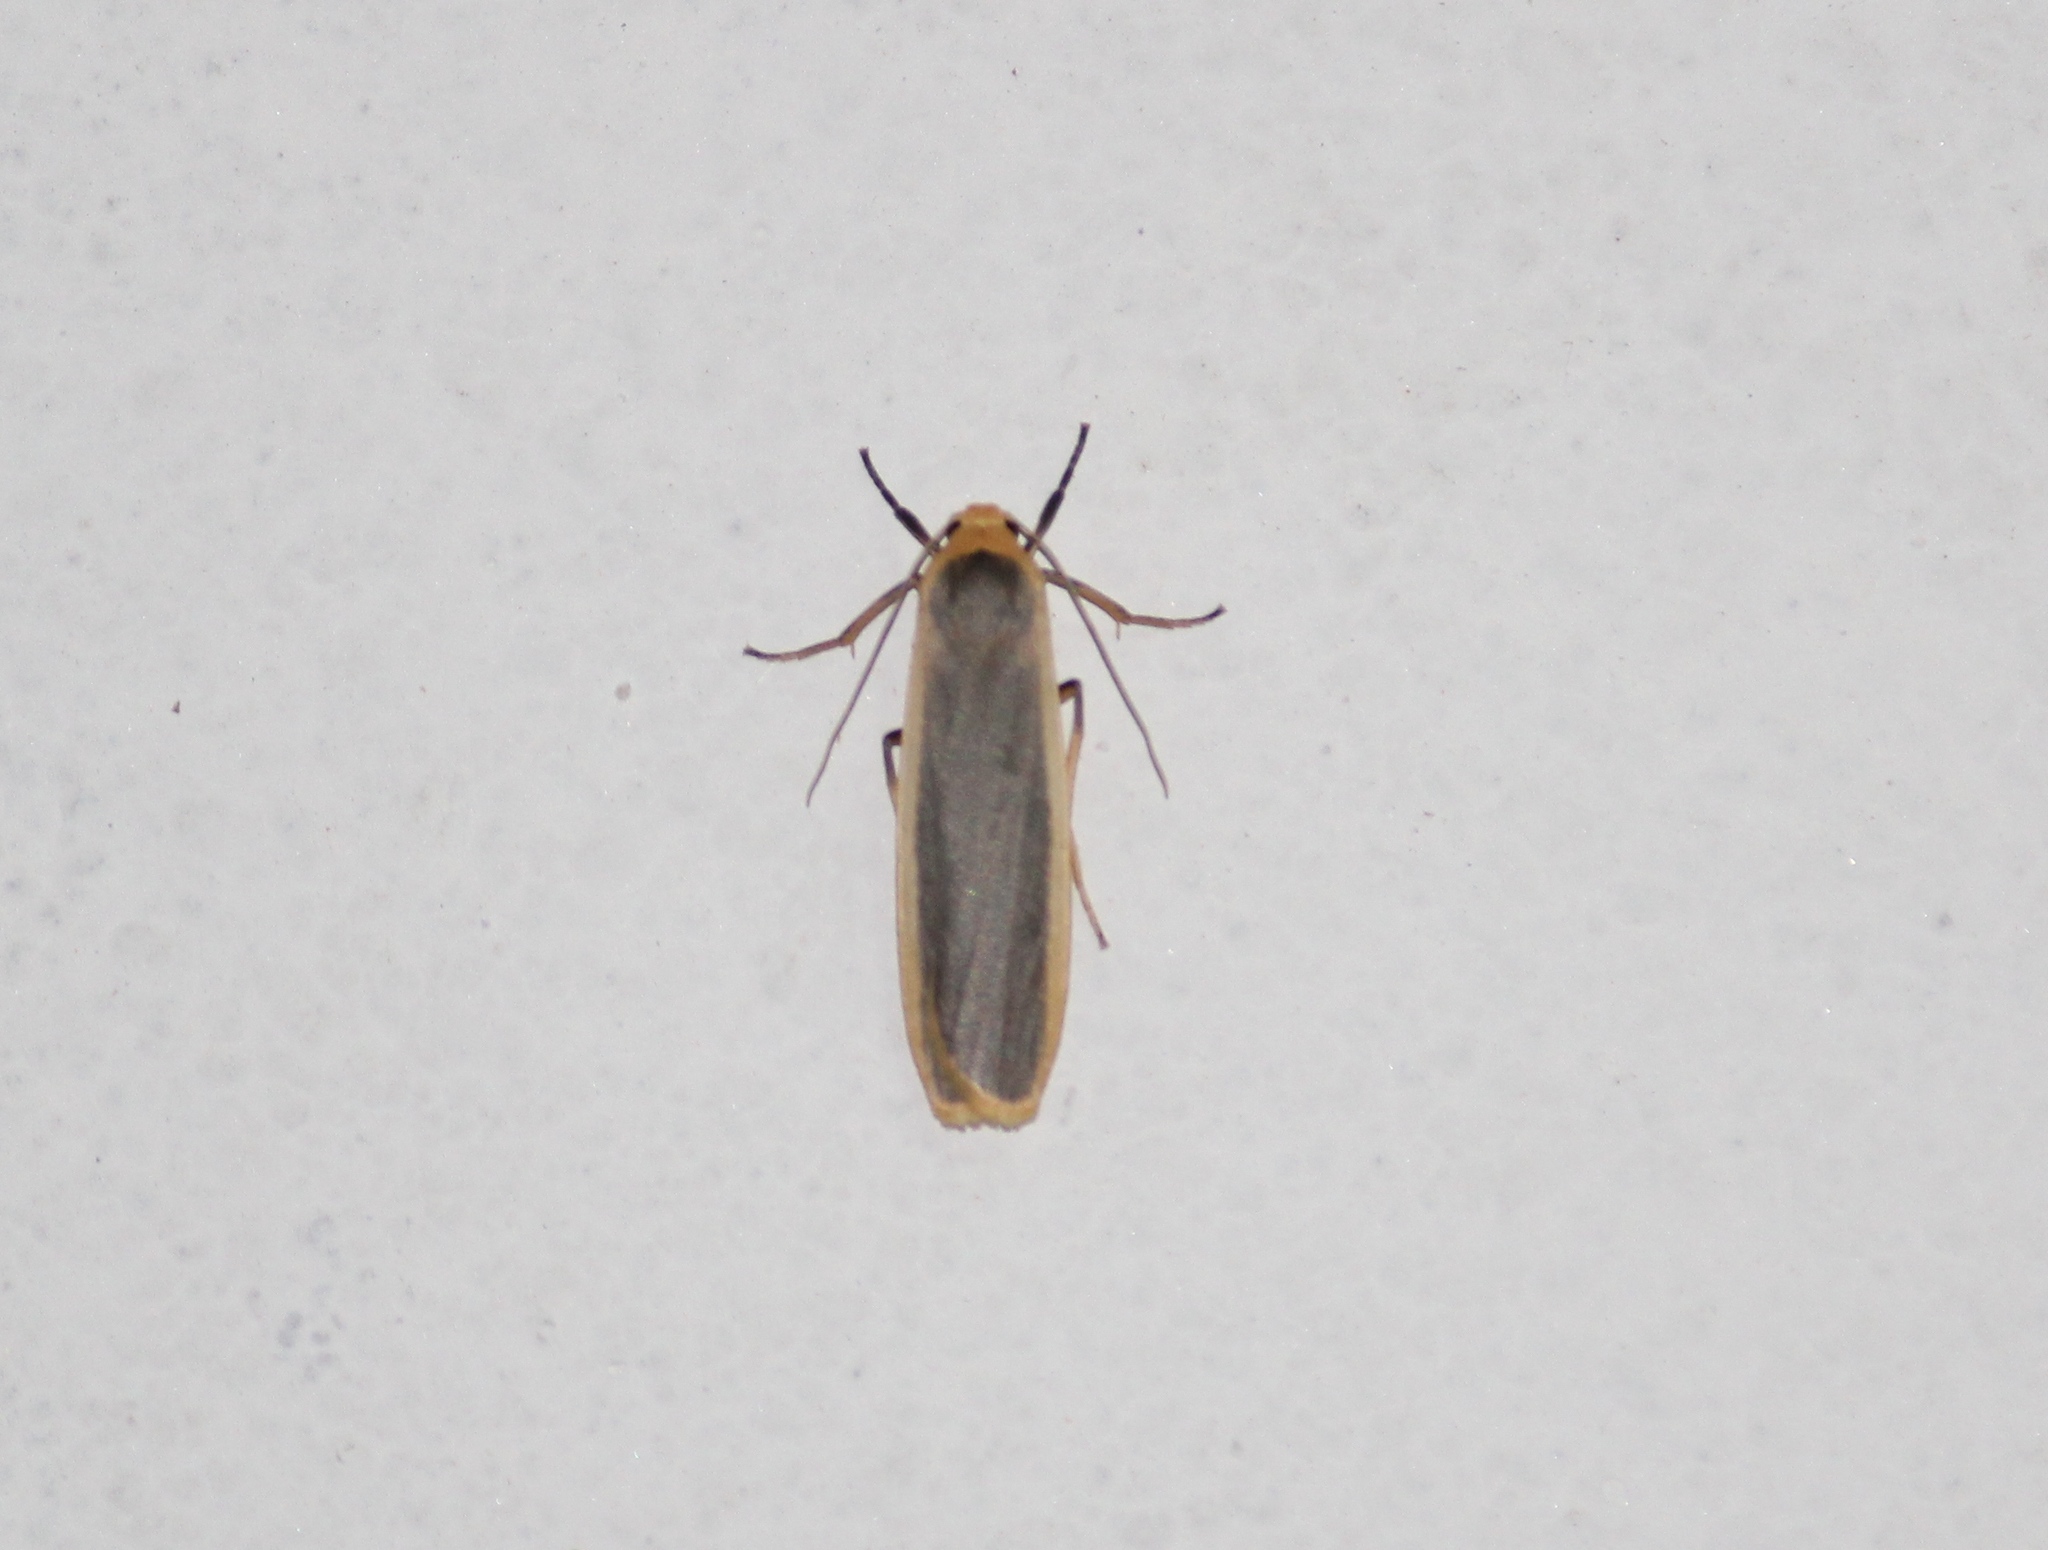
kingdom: Animalia
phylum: Arthropoda
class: Insecta
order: Lepidoptera
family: Erebidae
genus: Brunia
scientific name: Brunia antica
